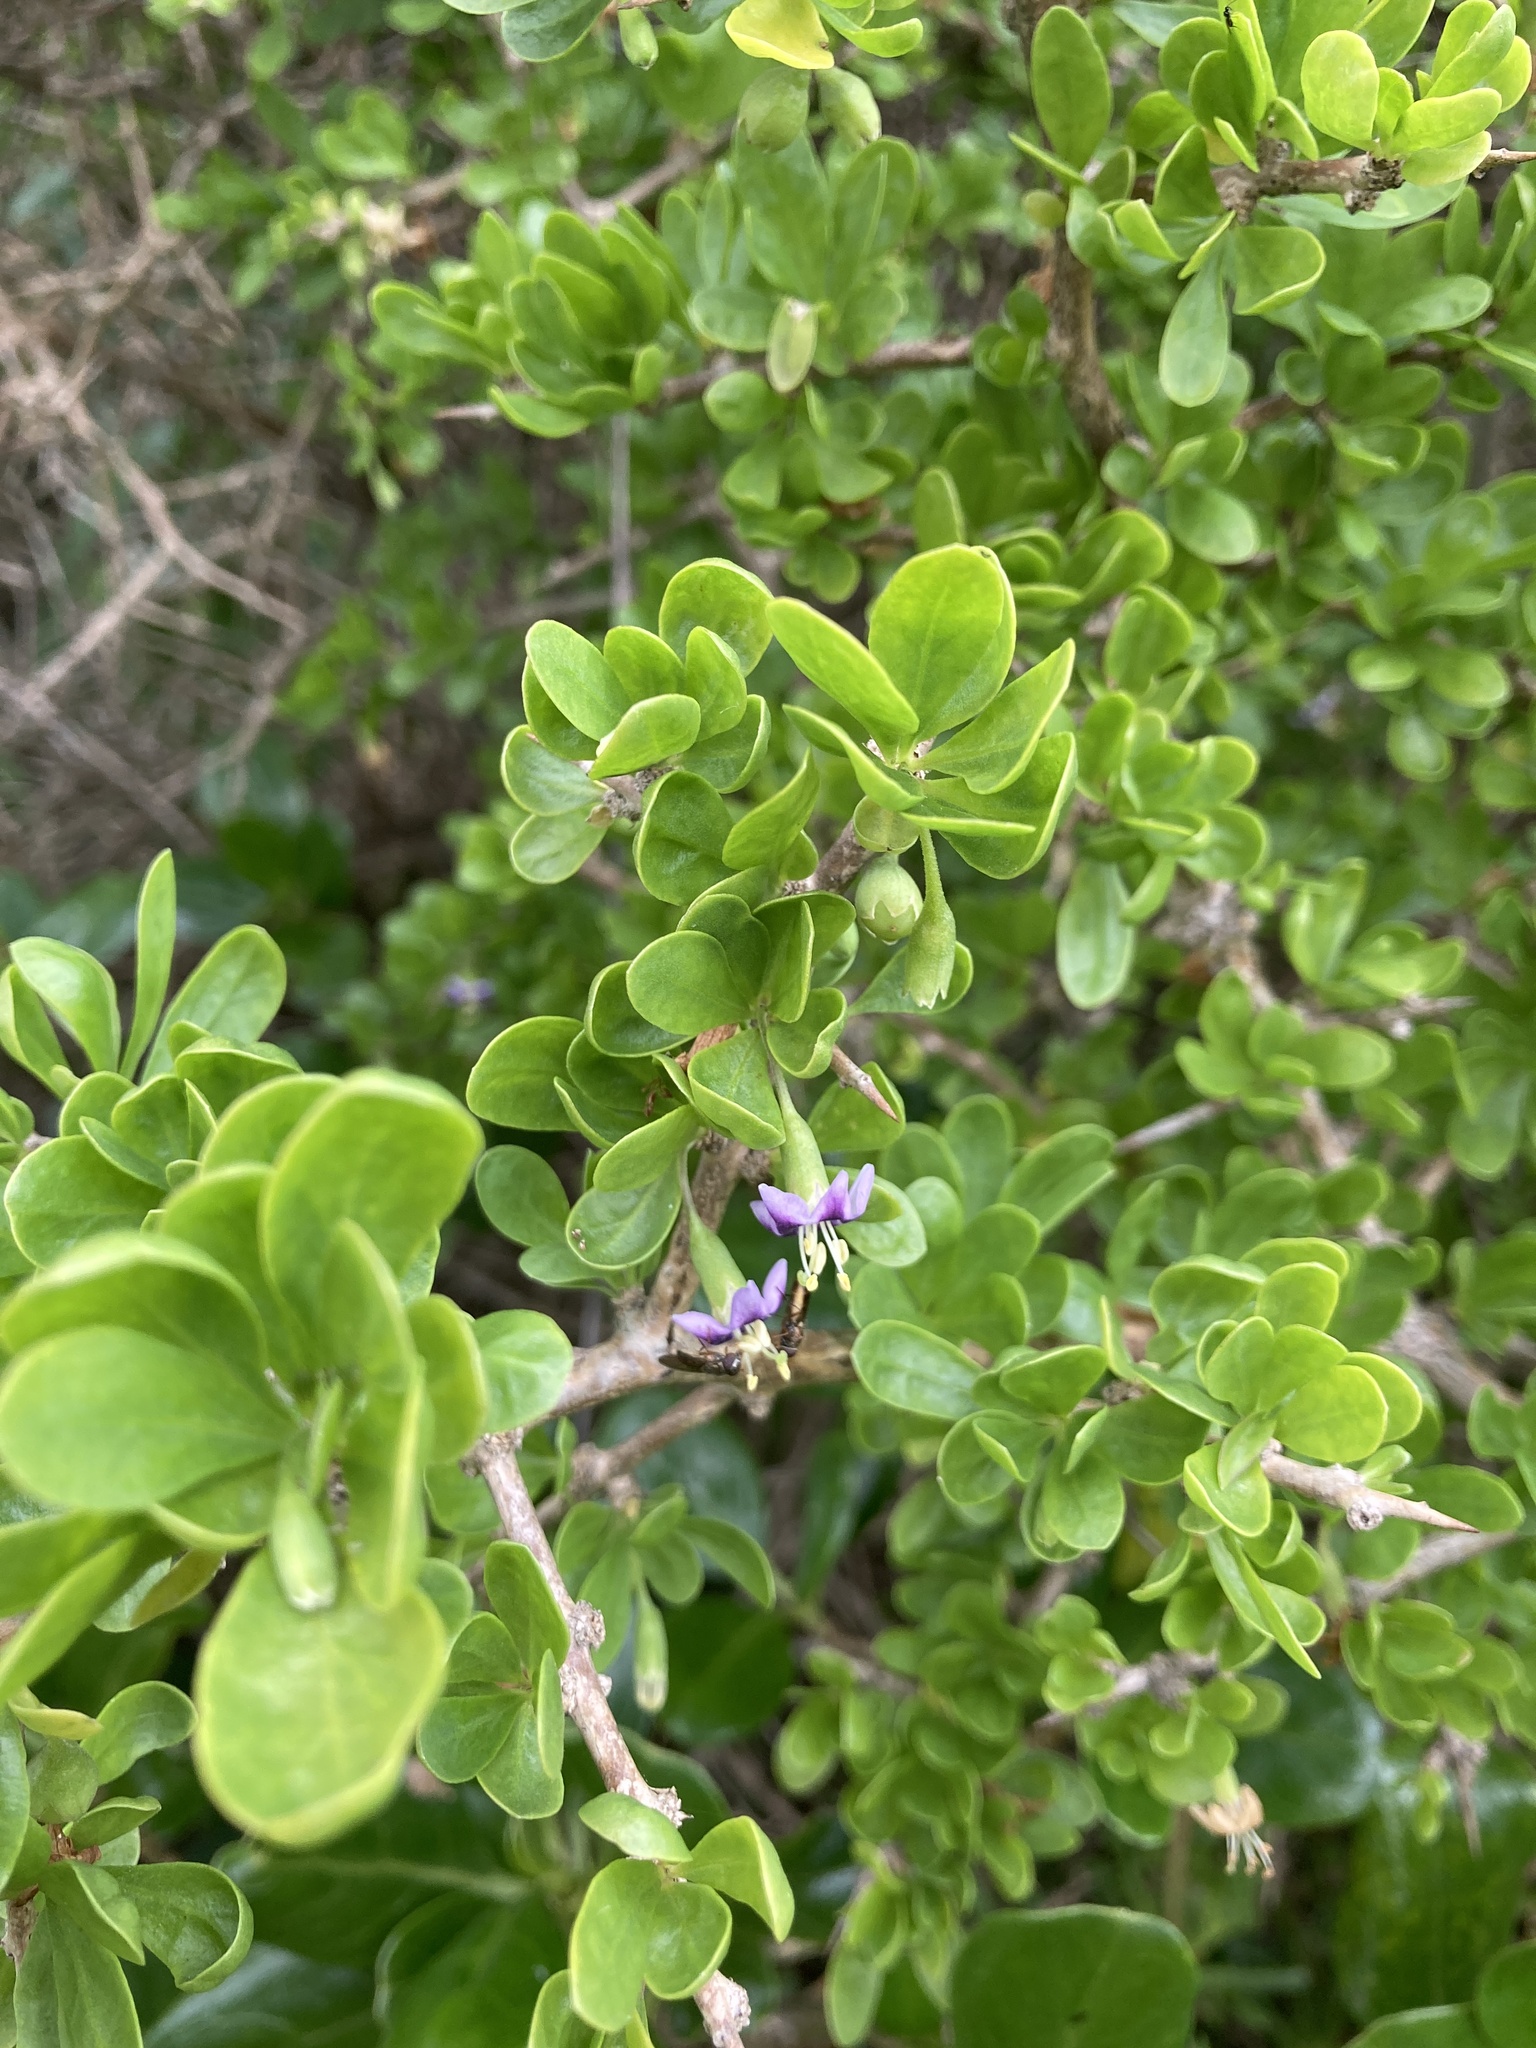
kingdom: Plantae
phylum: Tracheophyta
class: Magnoliopsida
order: Solanales
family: Solanaceae
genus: Lycium
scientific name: Lycium ferocissimum
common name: African boxthorn
